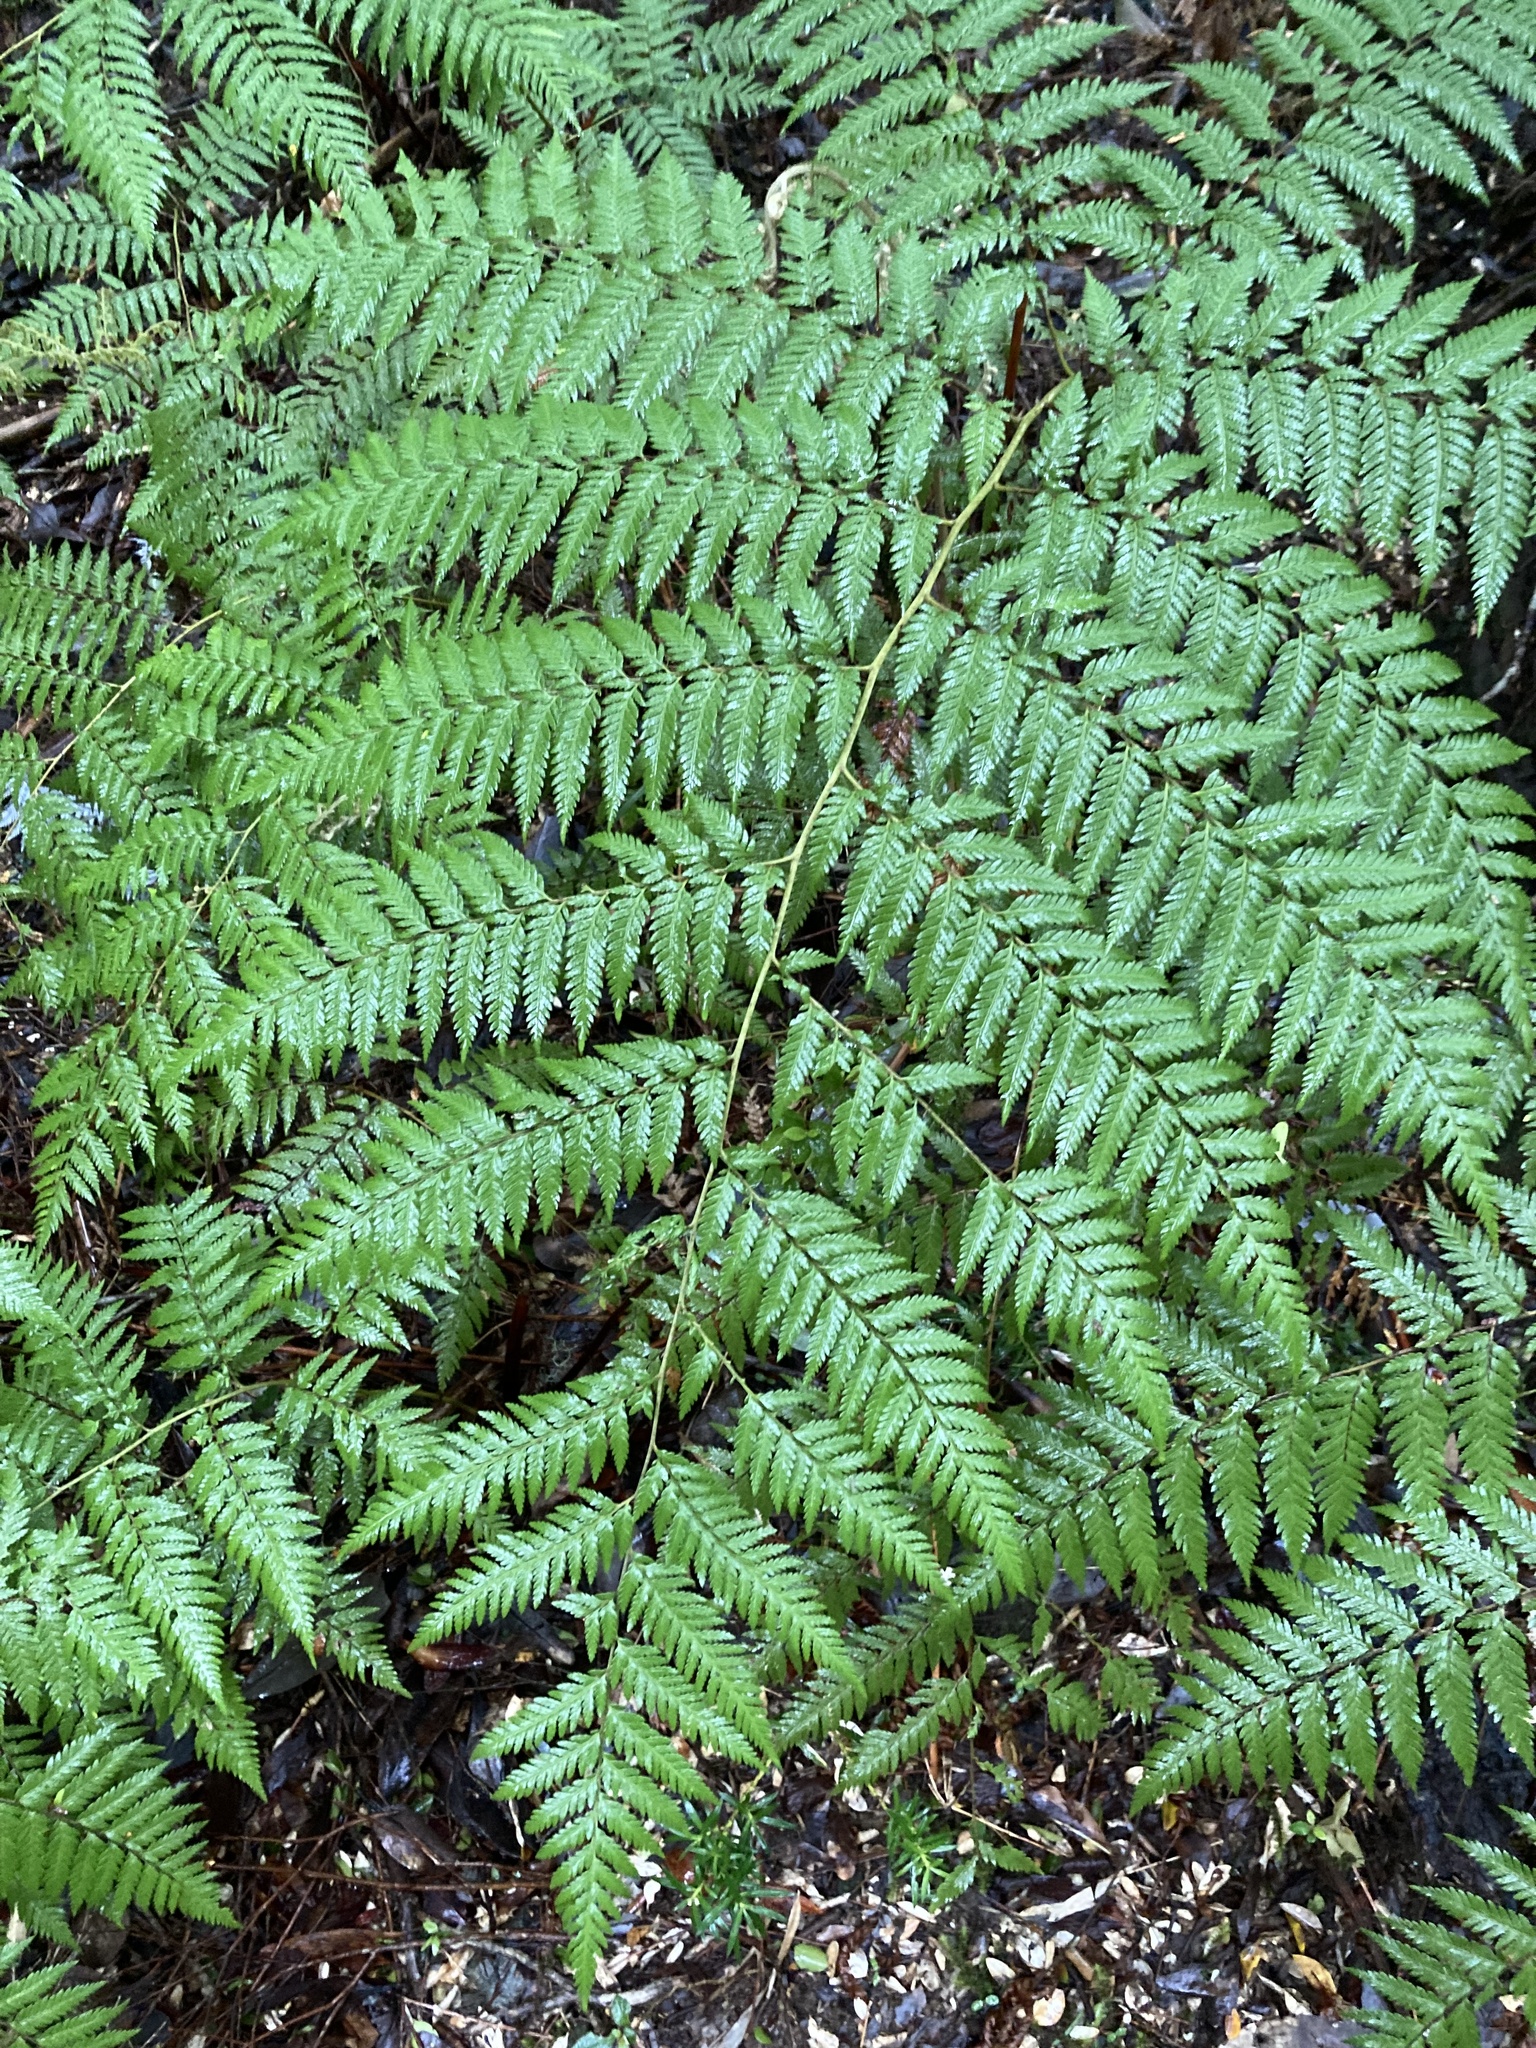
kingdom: Plantae
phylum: Tracheophyta
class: Polypodiopsida
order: Cyatheales
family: Dicksoniaceae
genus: Lophosoria
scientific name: Lophosoria quadripinnata
